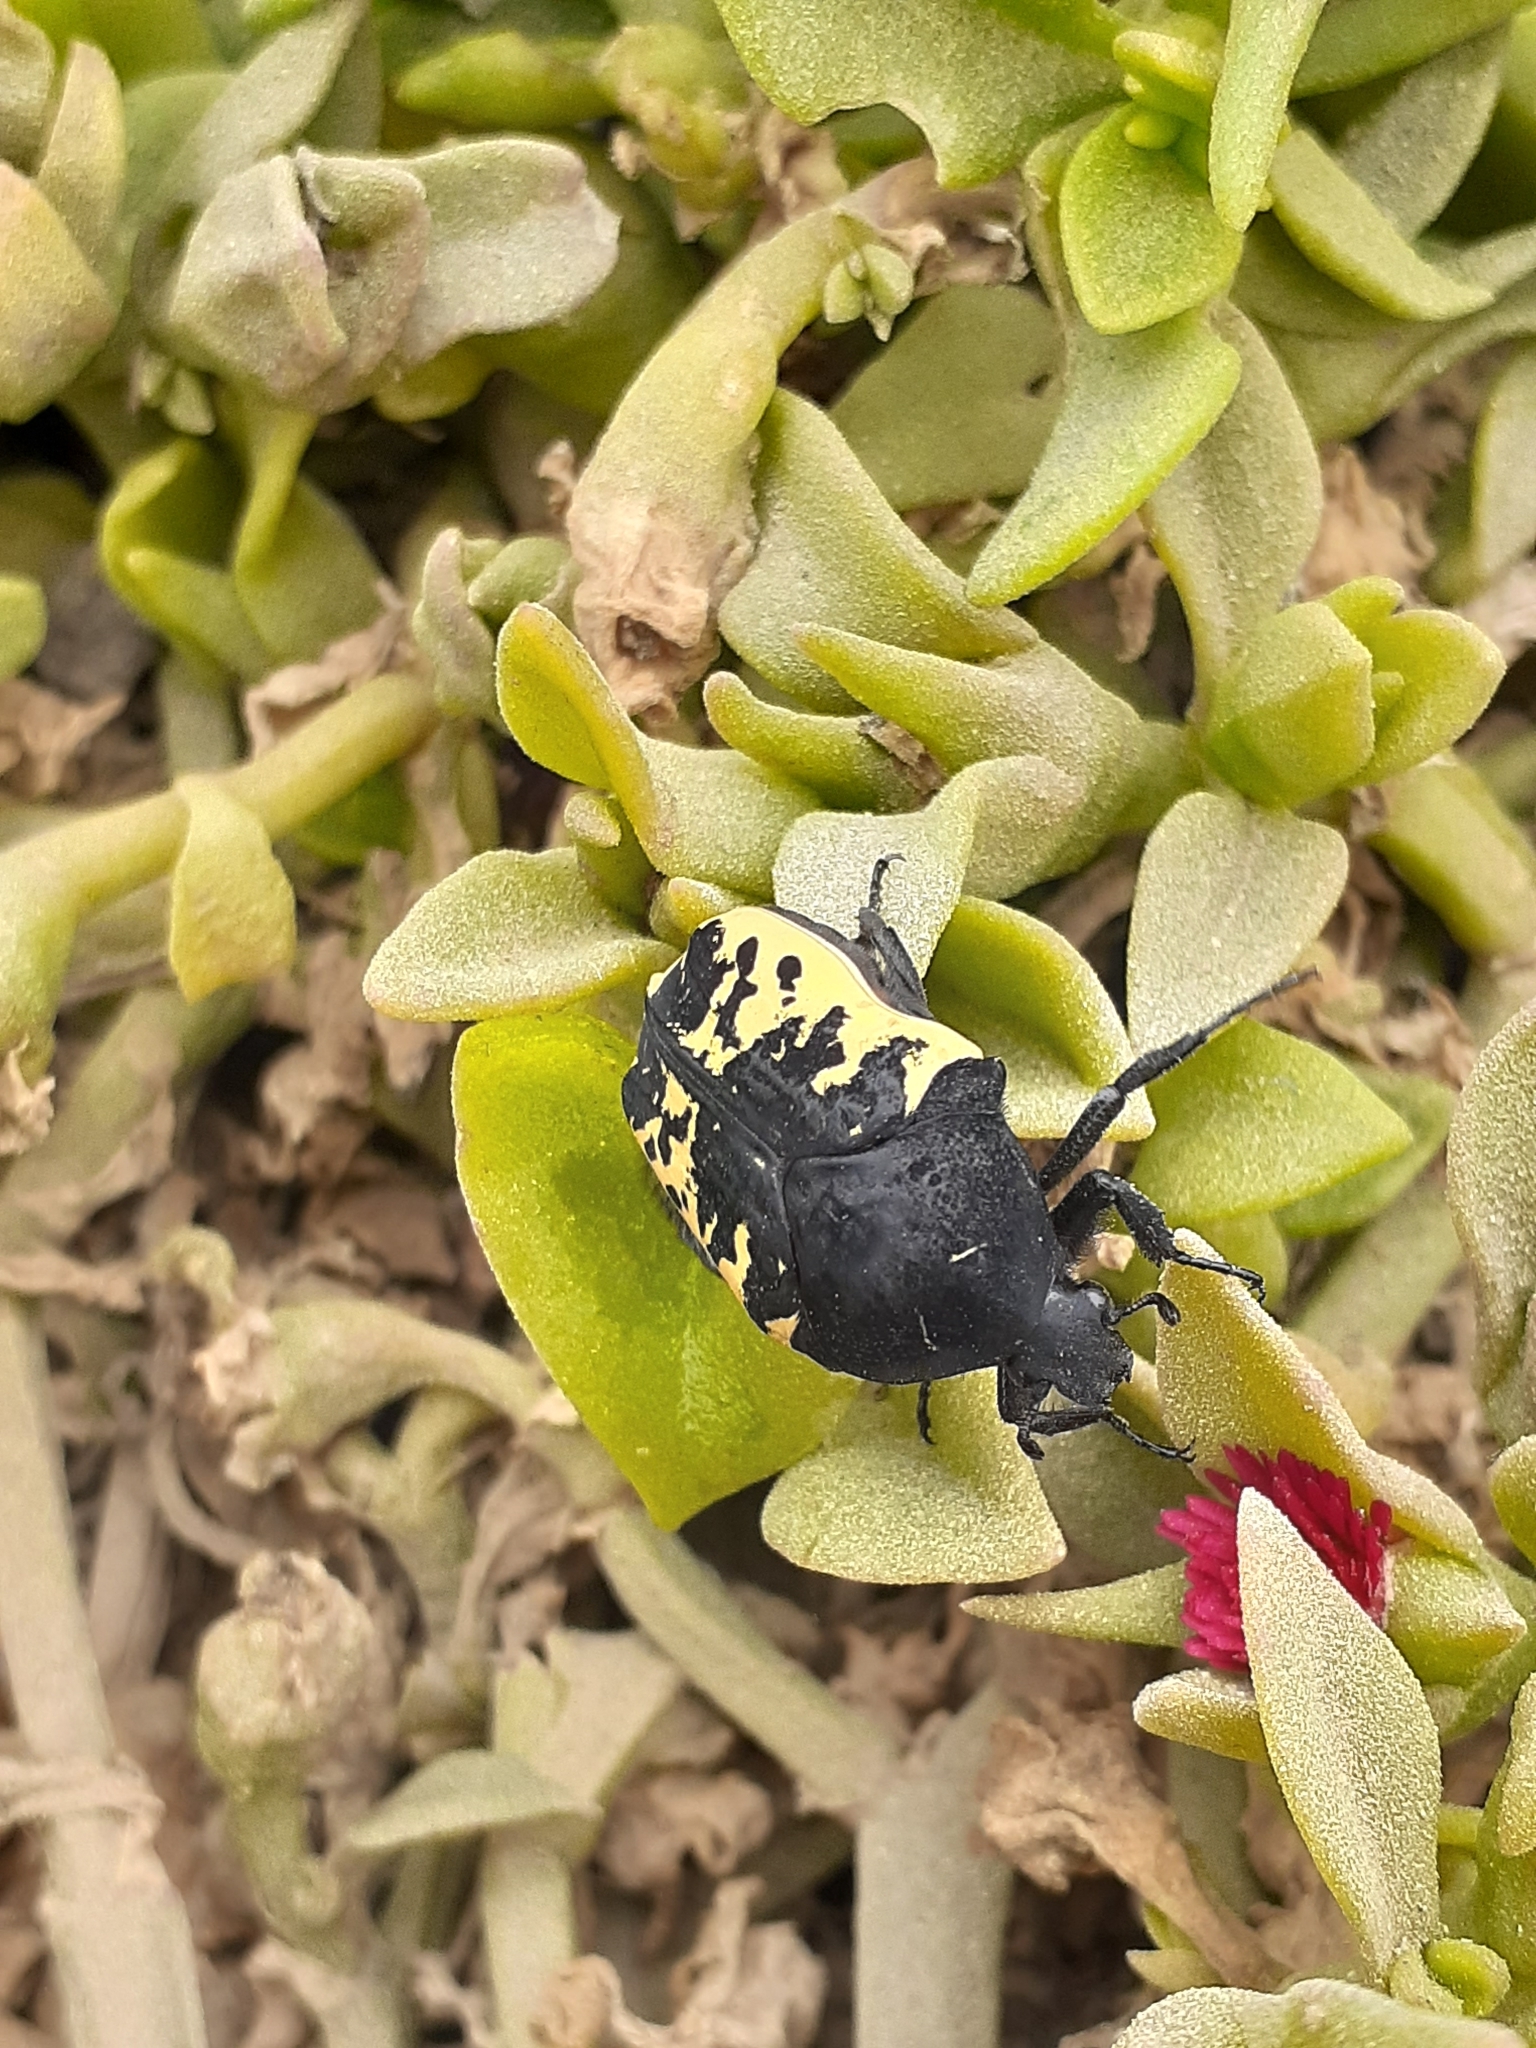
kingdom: Animalia
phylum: Arthropoda
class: Insecta
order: Coleoptera
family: Scarabaeidae
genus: Gymnetis
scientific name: Gymnetis merops
